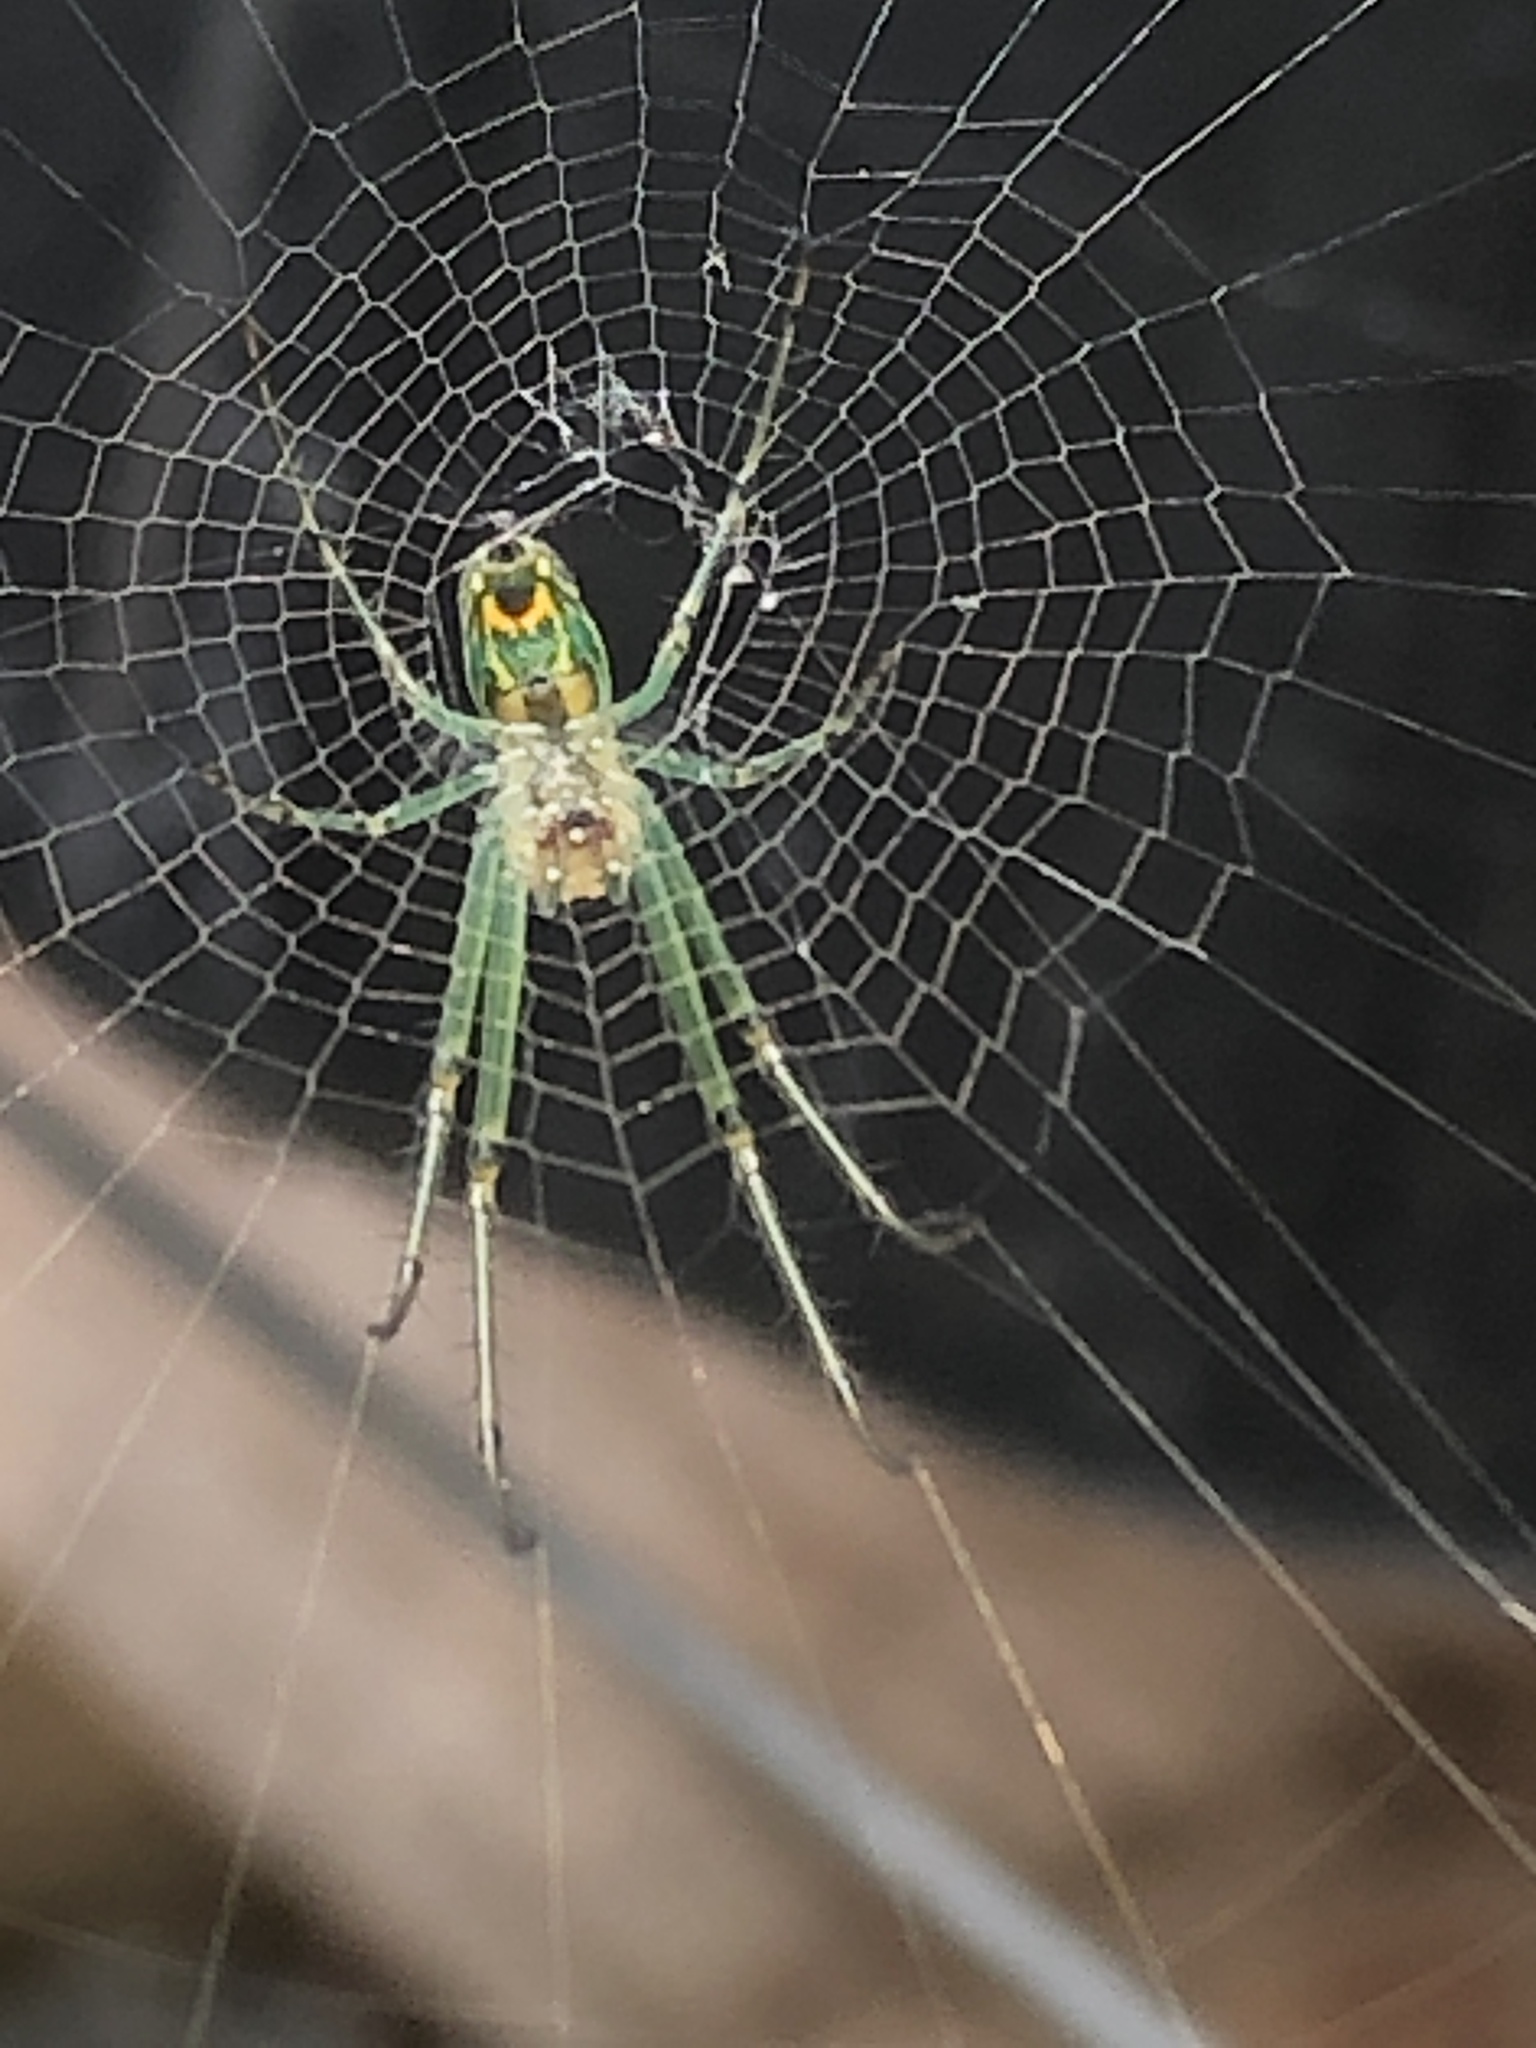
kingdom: Animalia
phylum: Arthropoda
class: Arachnida
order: Araneae
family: Tetragnathidae
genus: Leucauge
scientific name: Leucauge venusta
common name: Longjawed orb weavers
